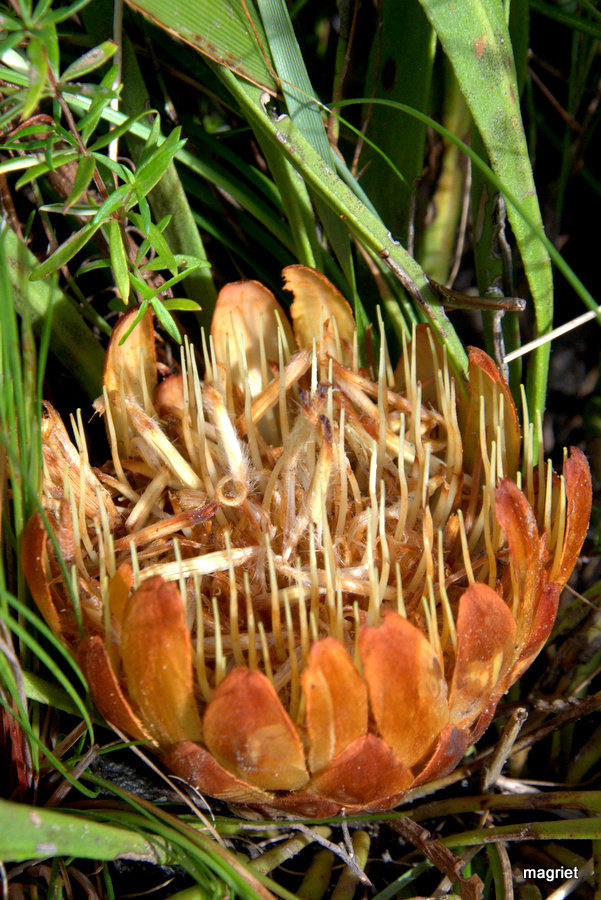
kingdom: Plantae
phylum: Tracheophyta
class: Magnoliopsida
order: Proteales
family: Proteaceae
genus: Protea
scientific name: Protea scabra
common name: Sandpaper-leaf sugarbush
